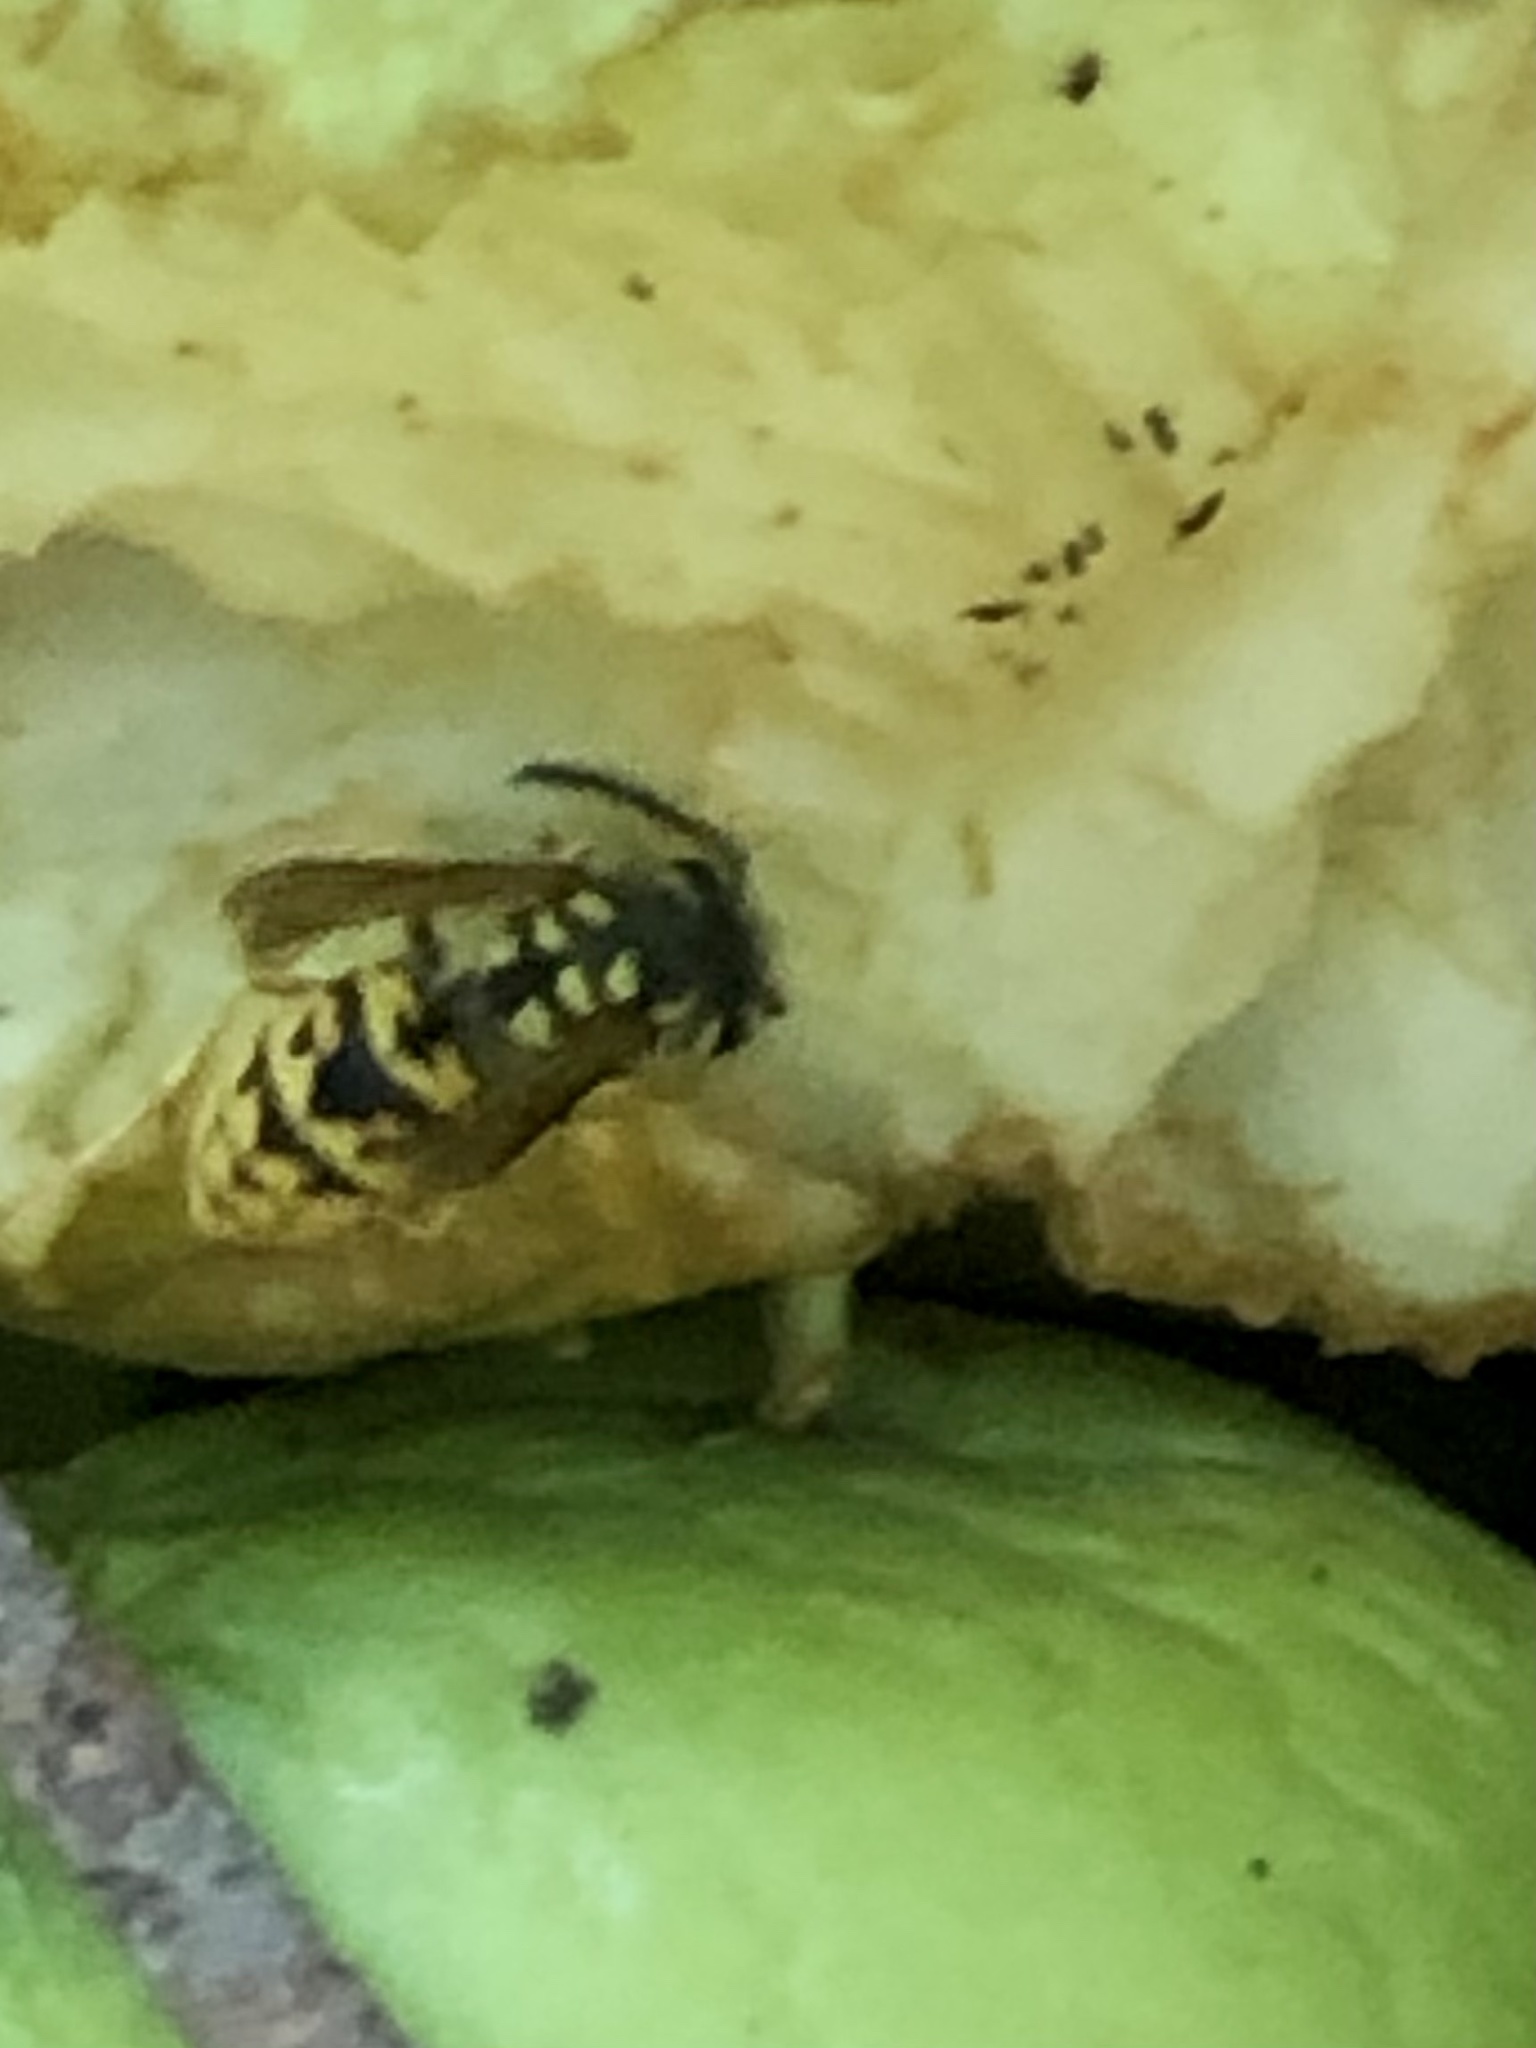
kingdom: Animalia
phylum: Arthropoda
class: Insecta
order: Hymenoptera
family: Vespidae
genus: Vespula
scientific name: Vespula germanica
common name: German wasp
